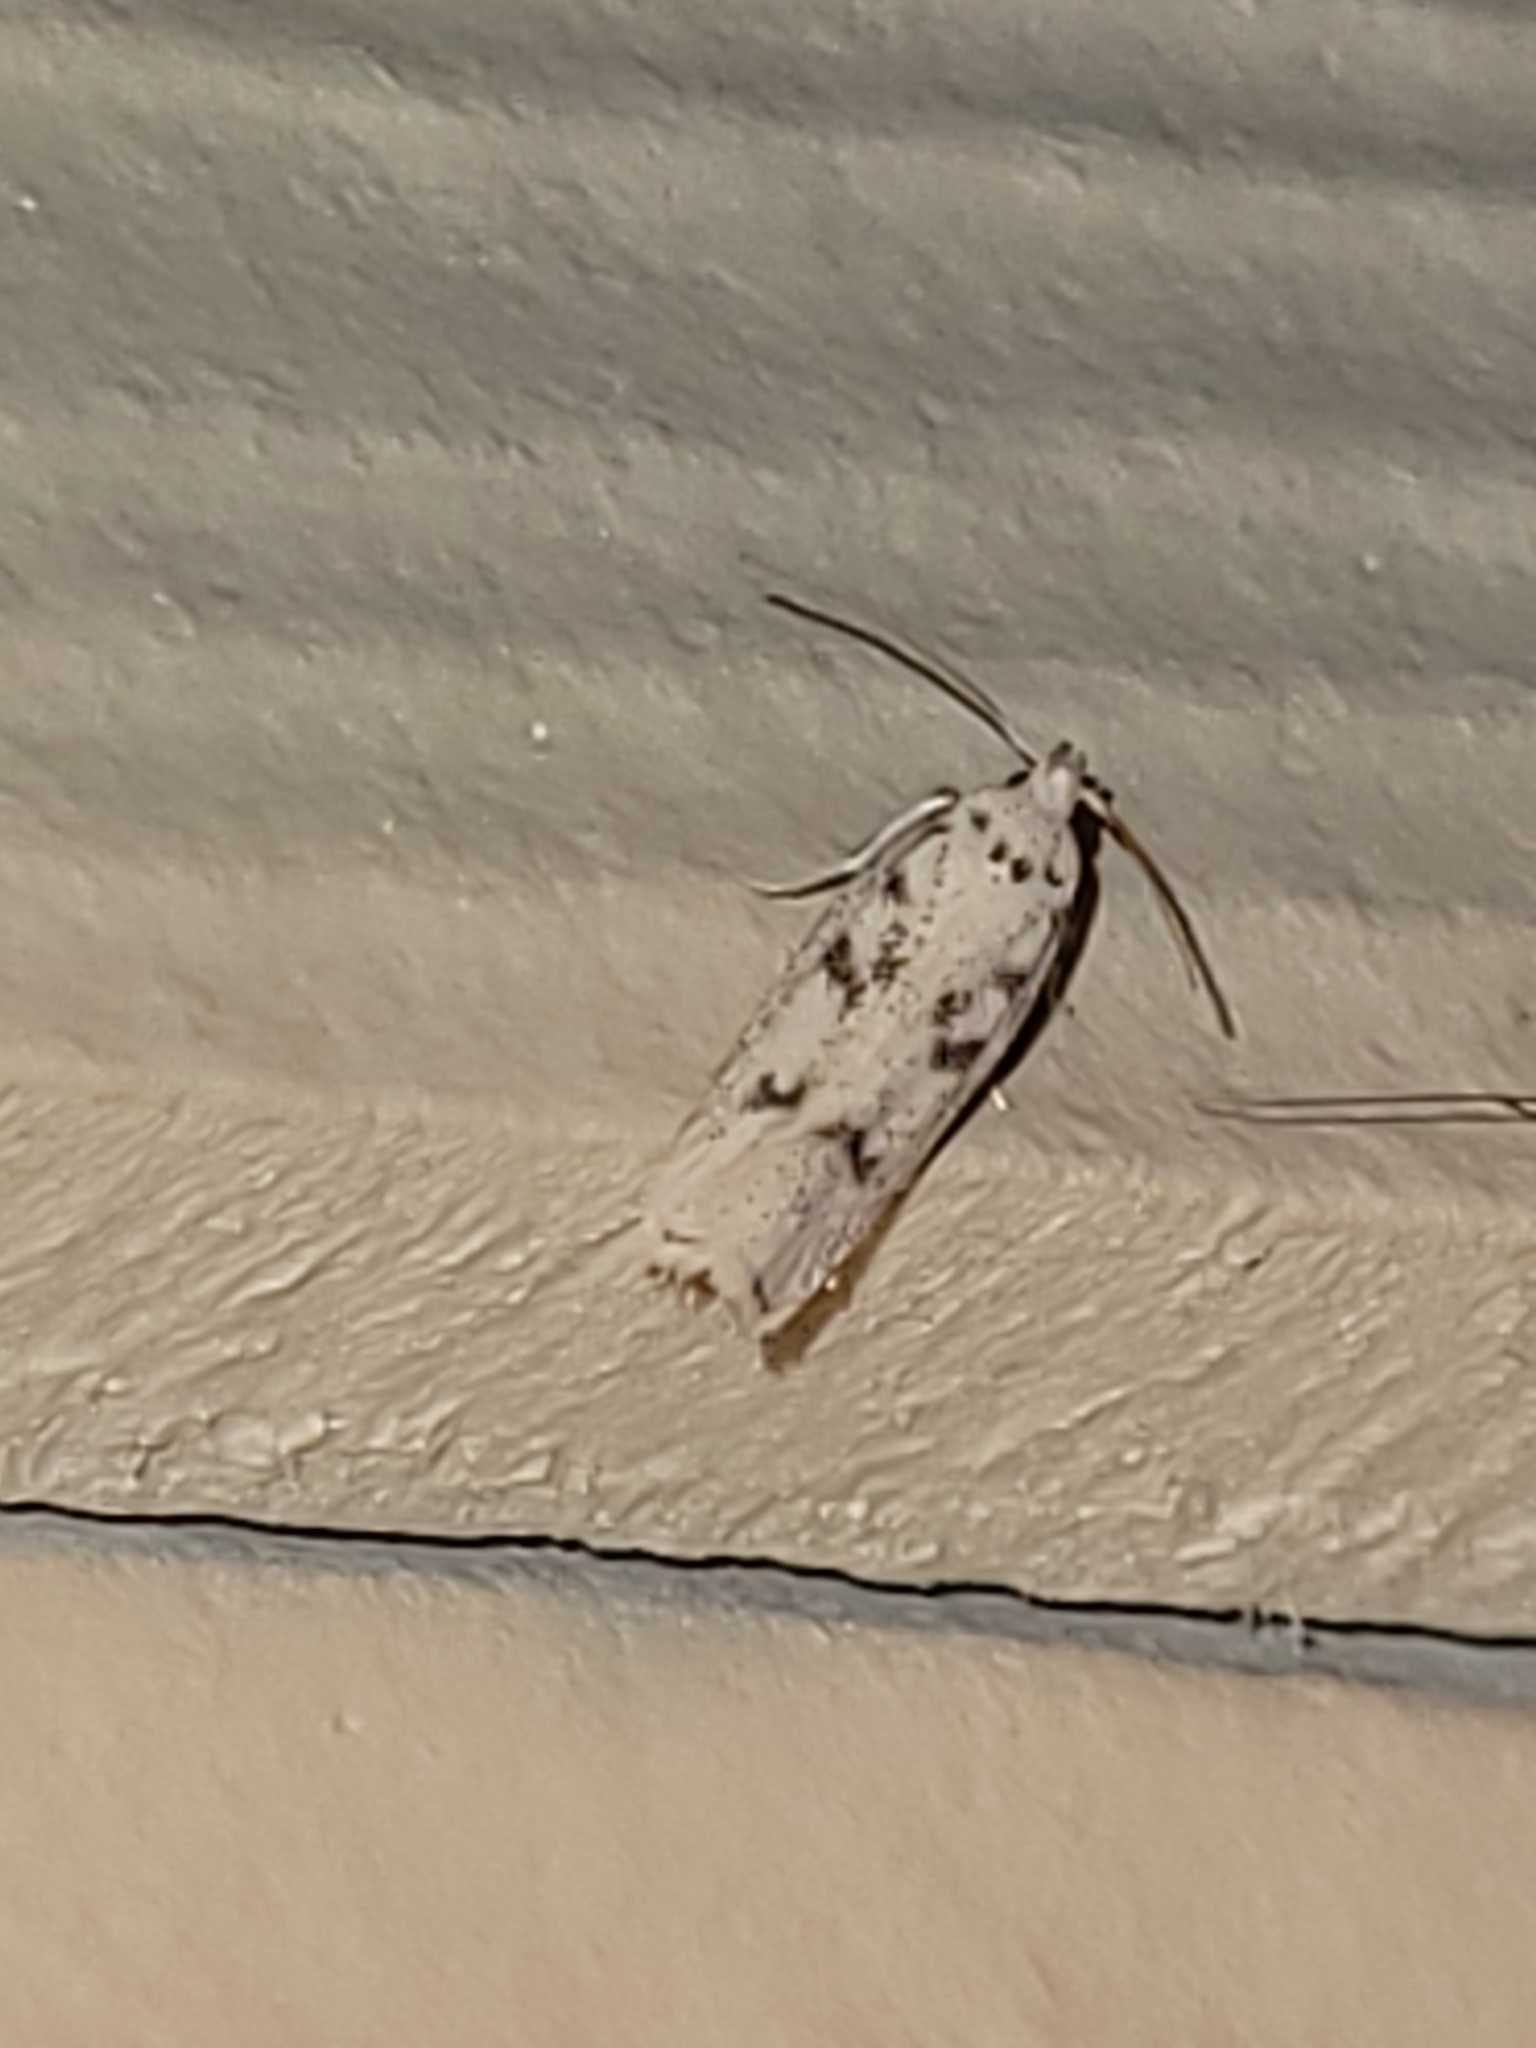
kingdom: Animalia
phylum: Arthropoda
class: Insecta
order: Lepidoptera
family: Autostichidae
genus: Glyphidocera
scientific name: Glyphidocera lactiflosella
